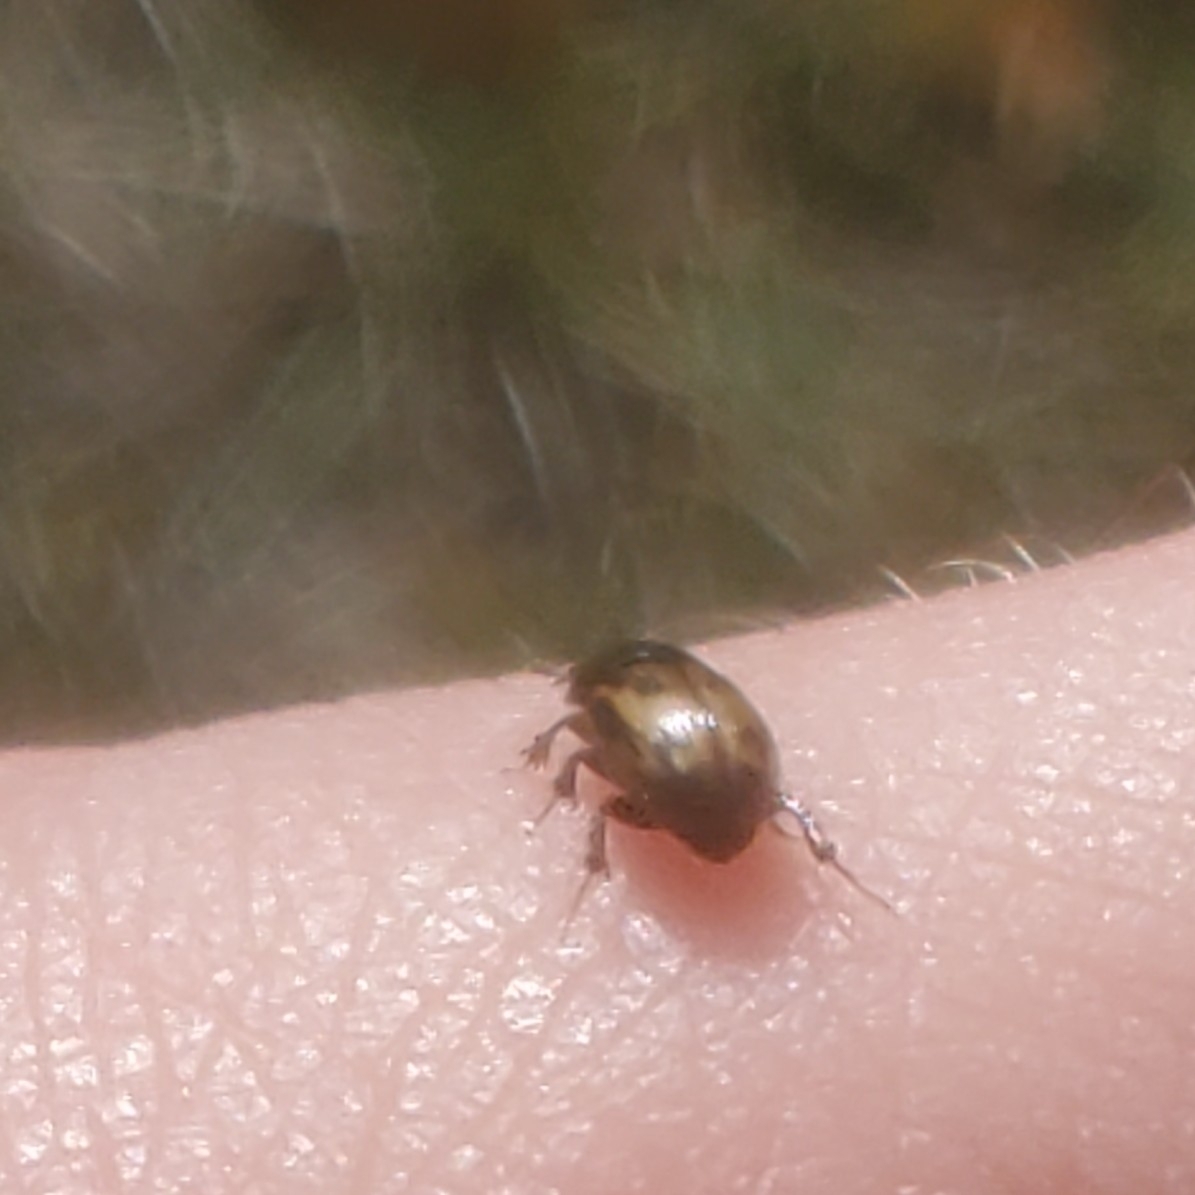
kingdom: Animalia
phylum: Arthropoda
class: Insecta
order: Coleoptera
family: Scarabaeidae
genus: Chilothorax
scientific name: Chilothorax distinctus
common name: Maculated dung beetle
